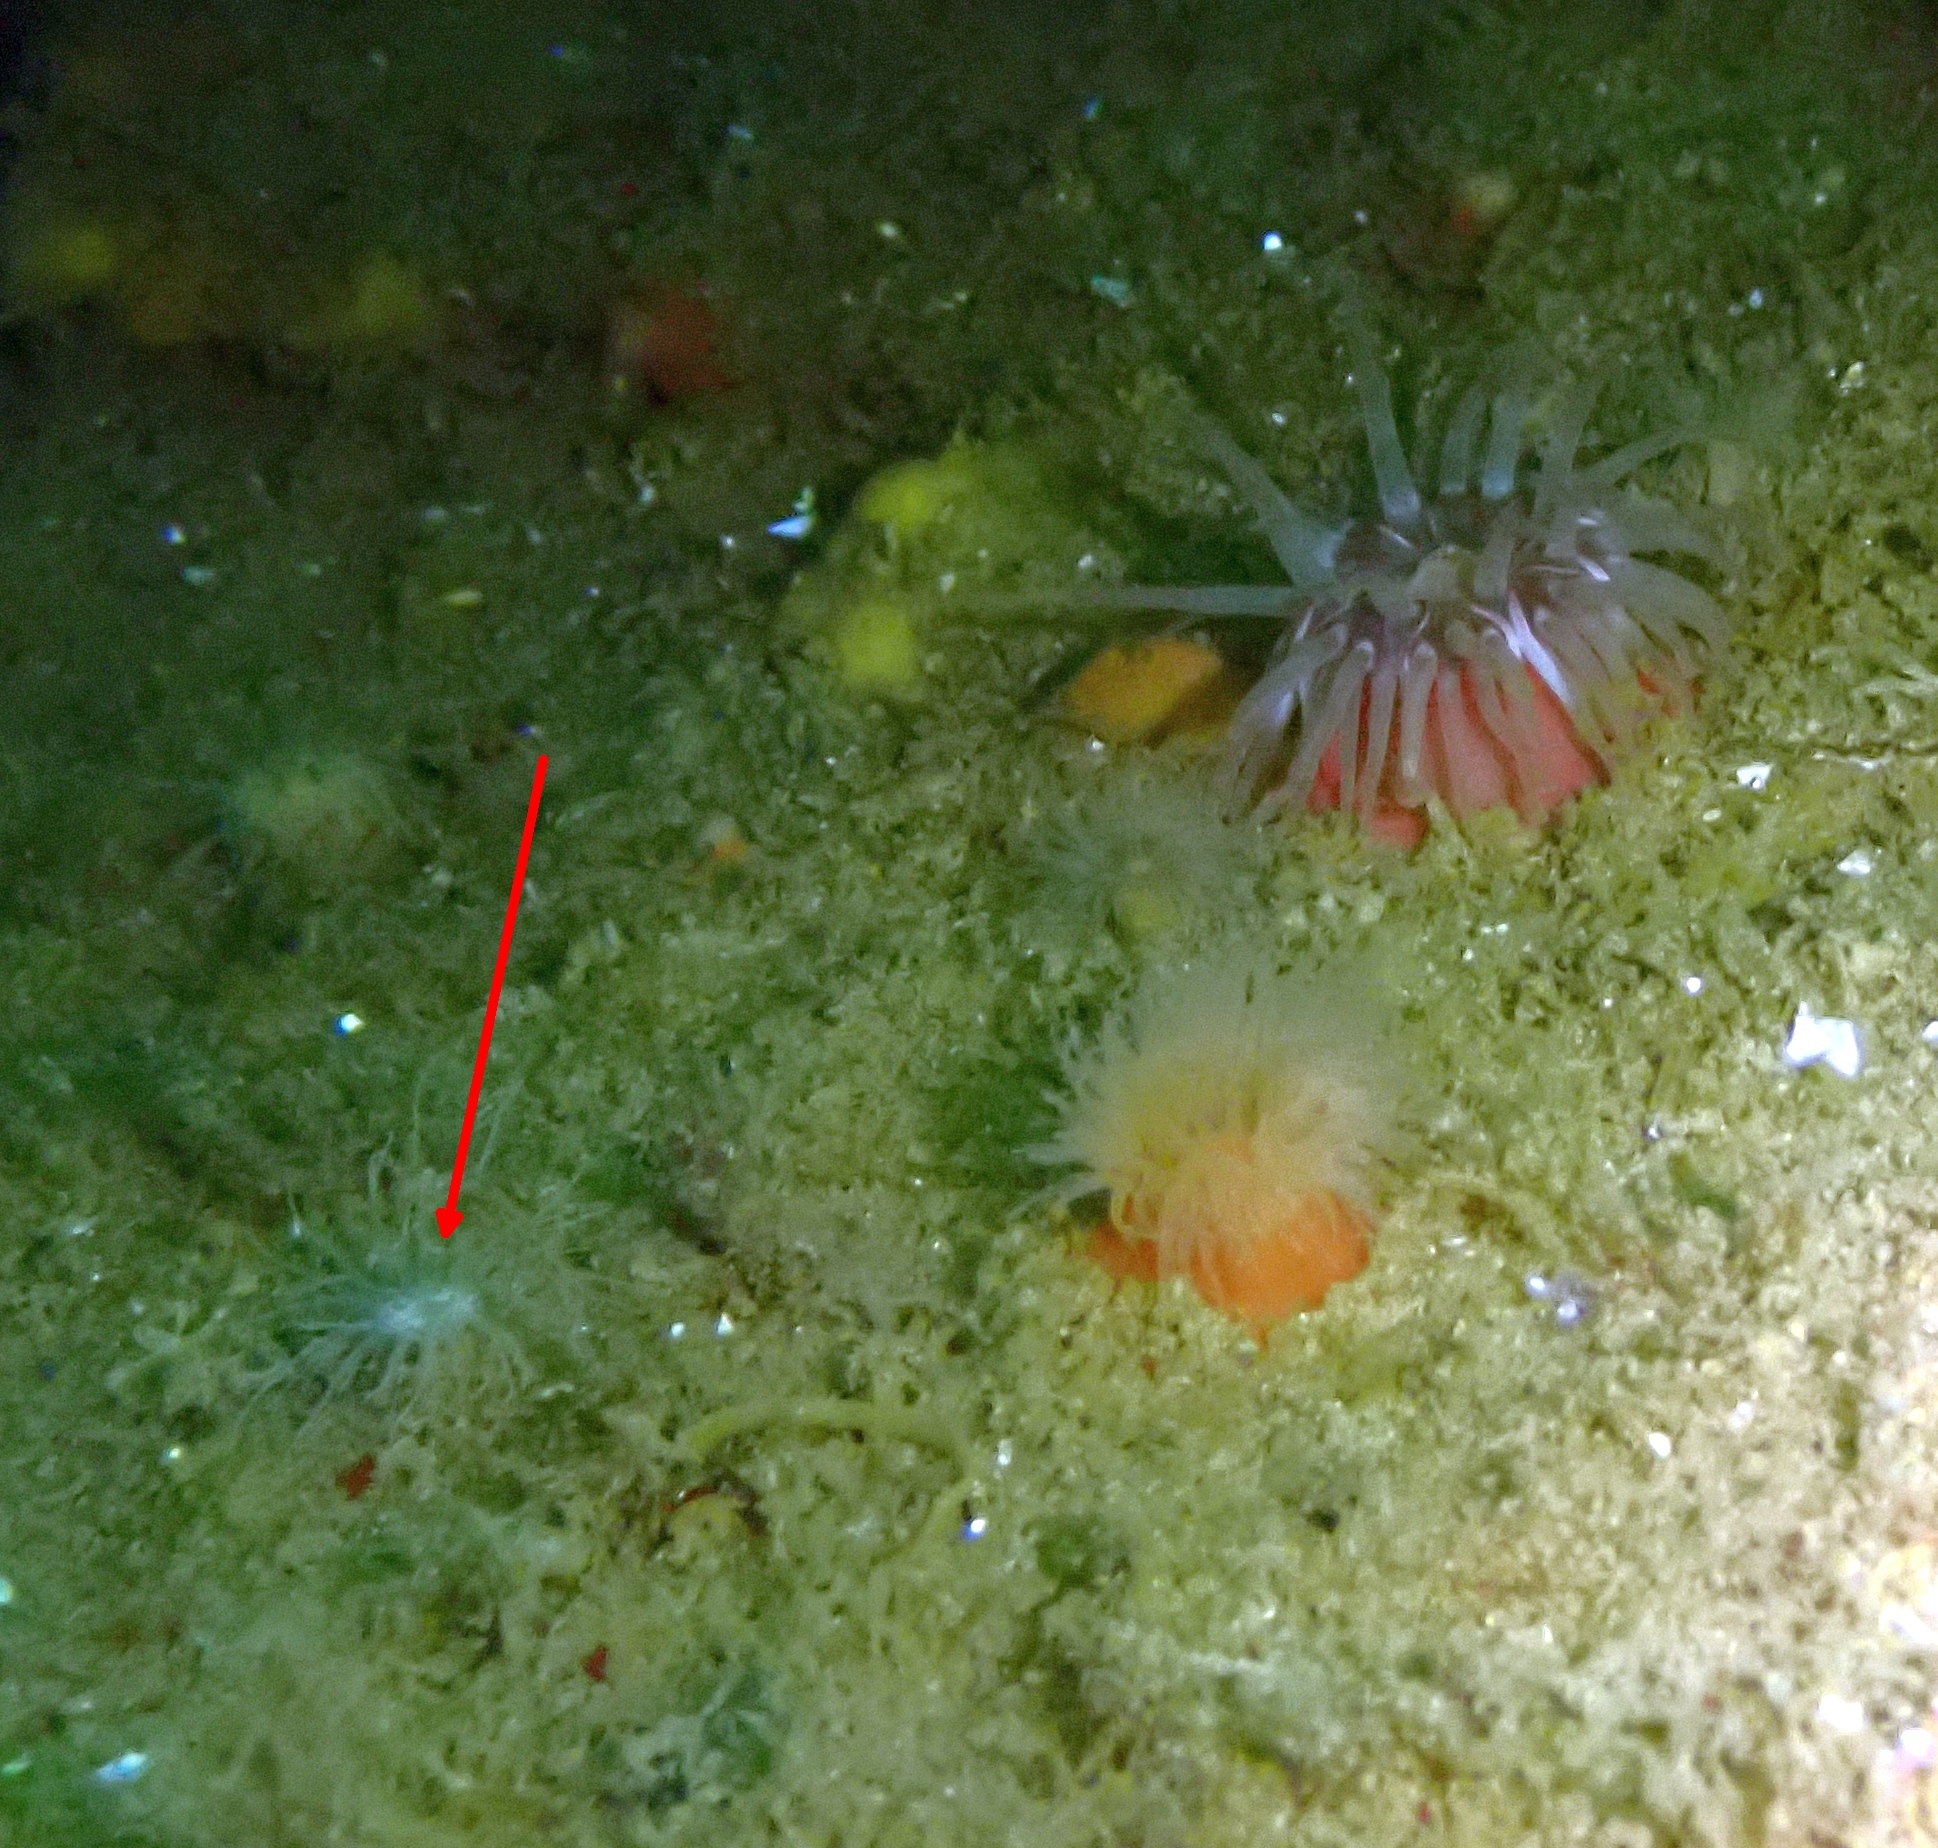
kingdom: Animalia
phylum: Cnidaria
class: Anthozoa
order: Actiniaria
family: Sagartiidae
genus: Sagartia
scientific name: Sagartia undata
